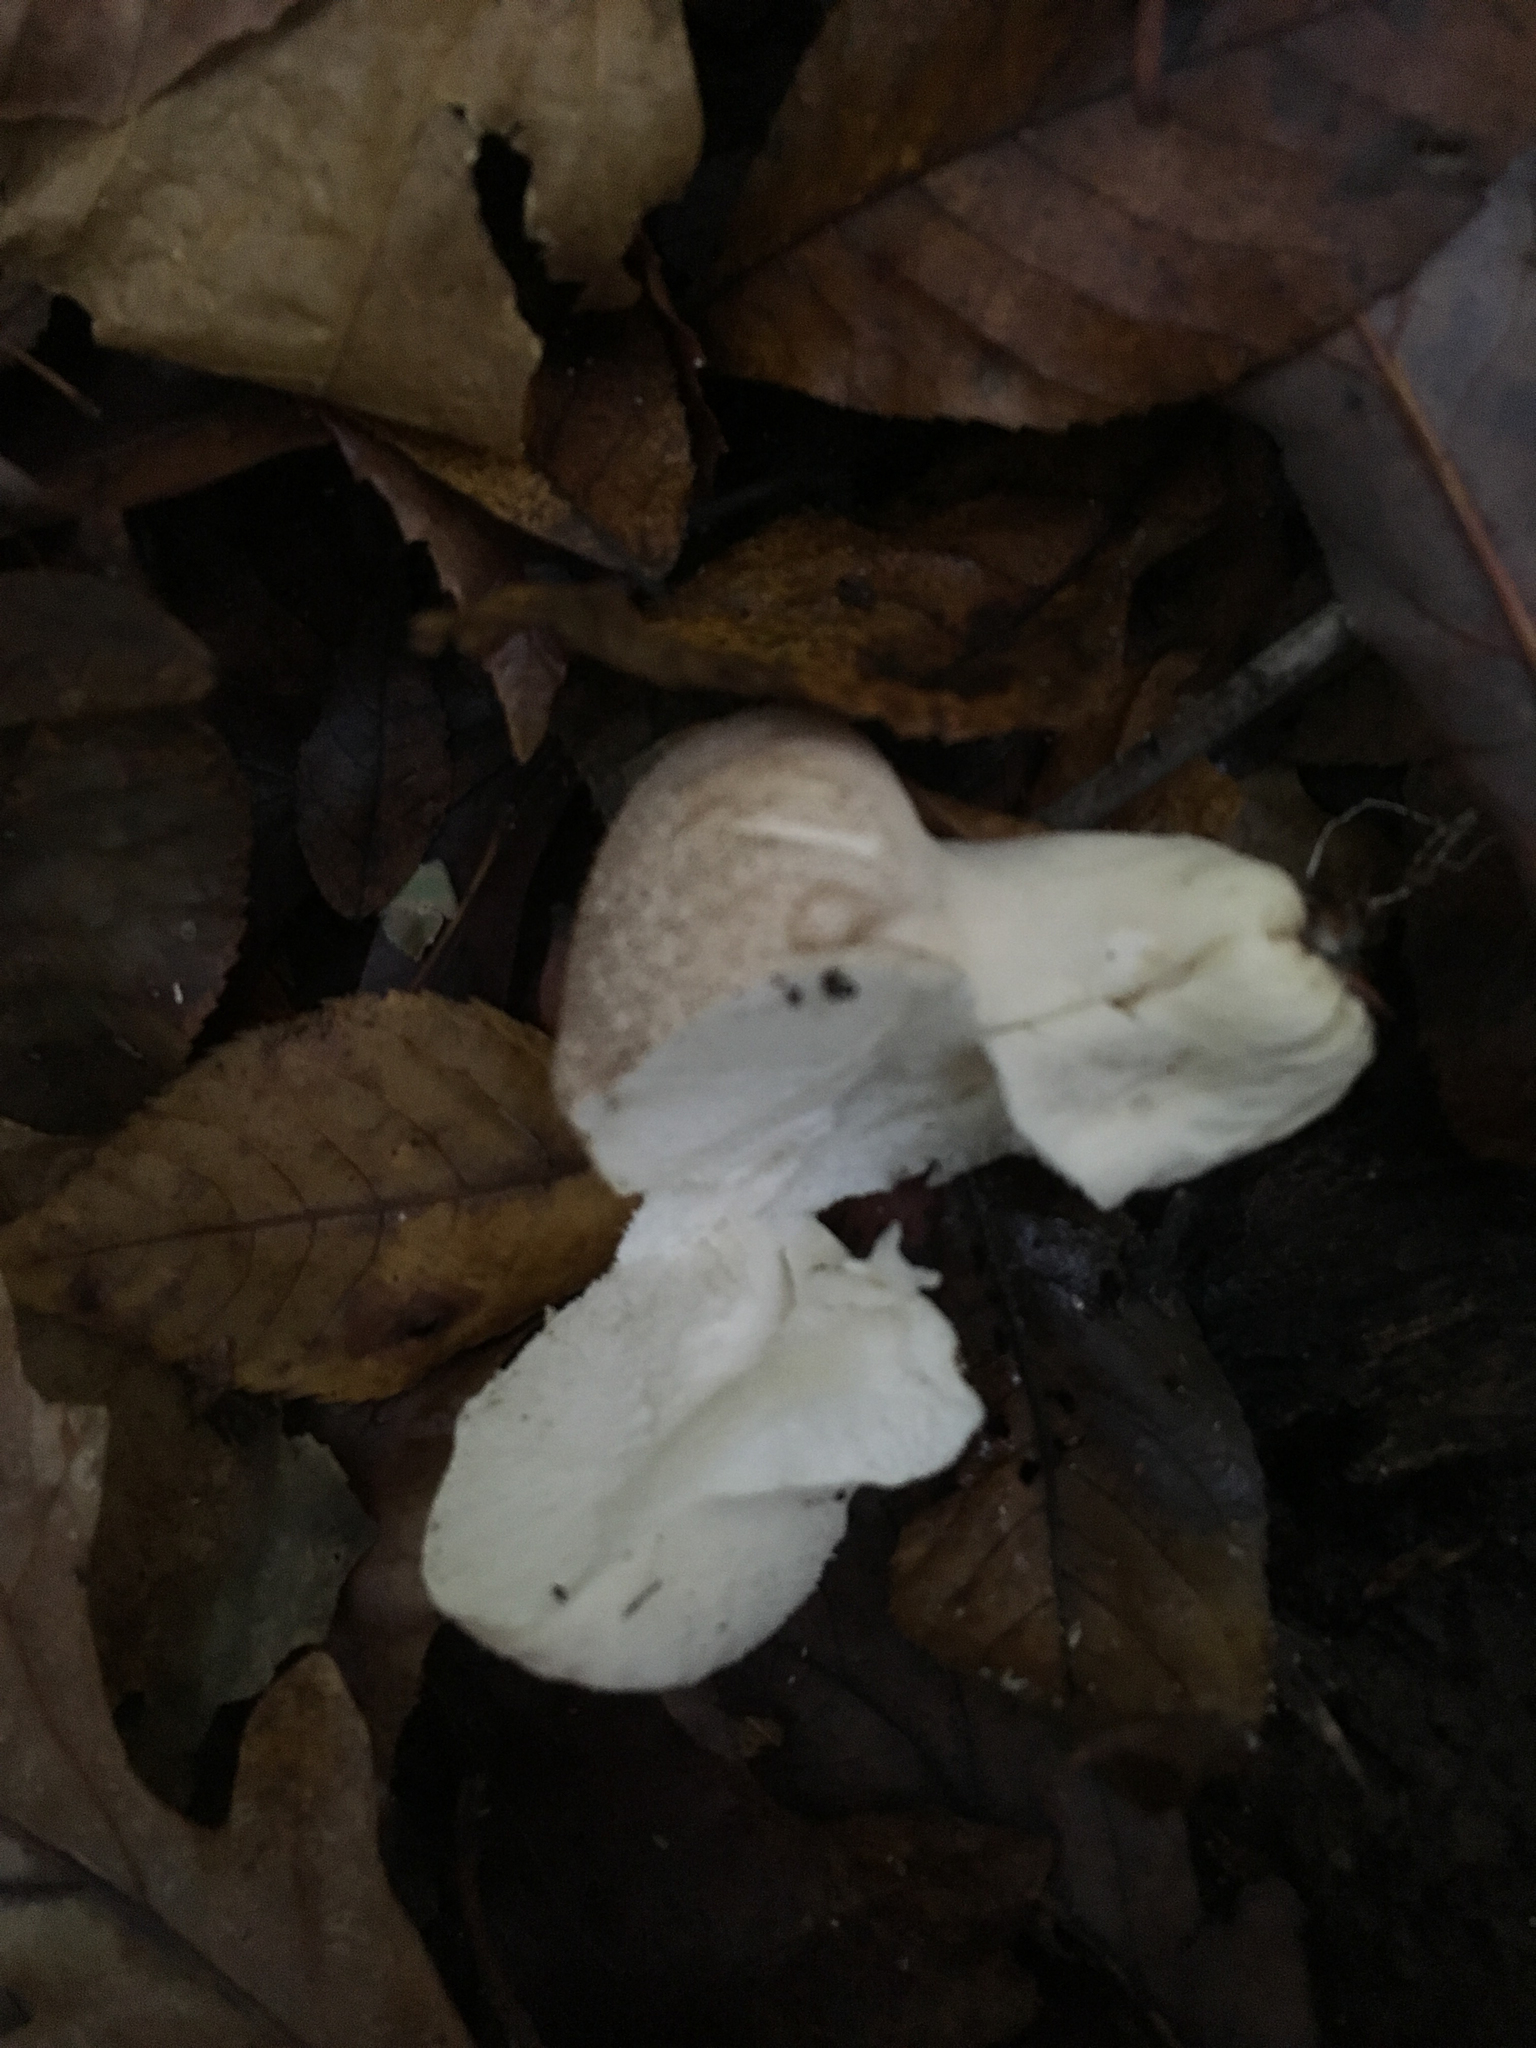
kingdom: Fungi
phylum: Basidiomycota
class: Agaricomycetes
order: Agaricales
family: Lycoperdaceae
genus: Lycoperdon
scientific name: Lycoperdon perlatum
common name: Common puffball
